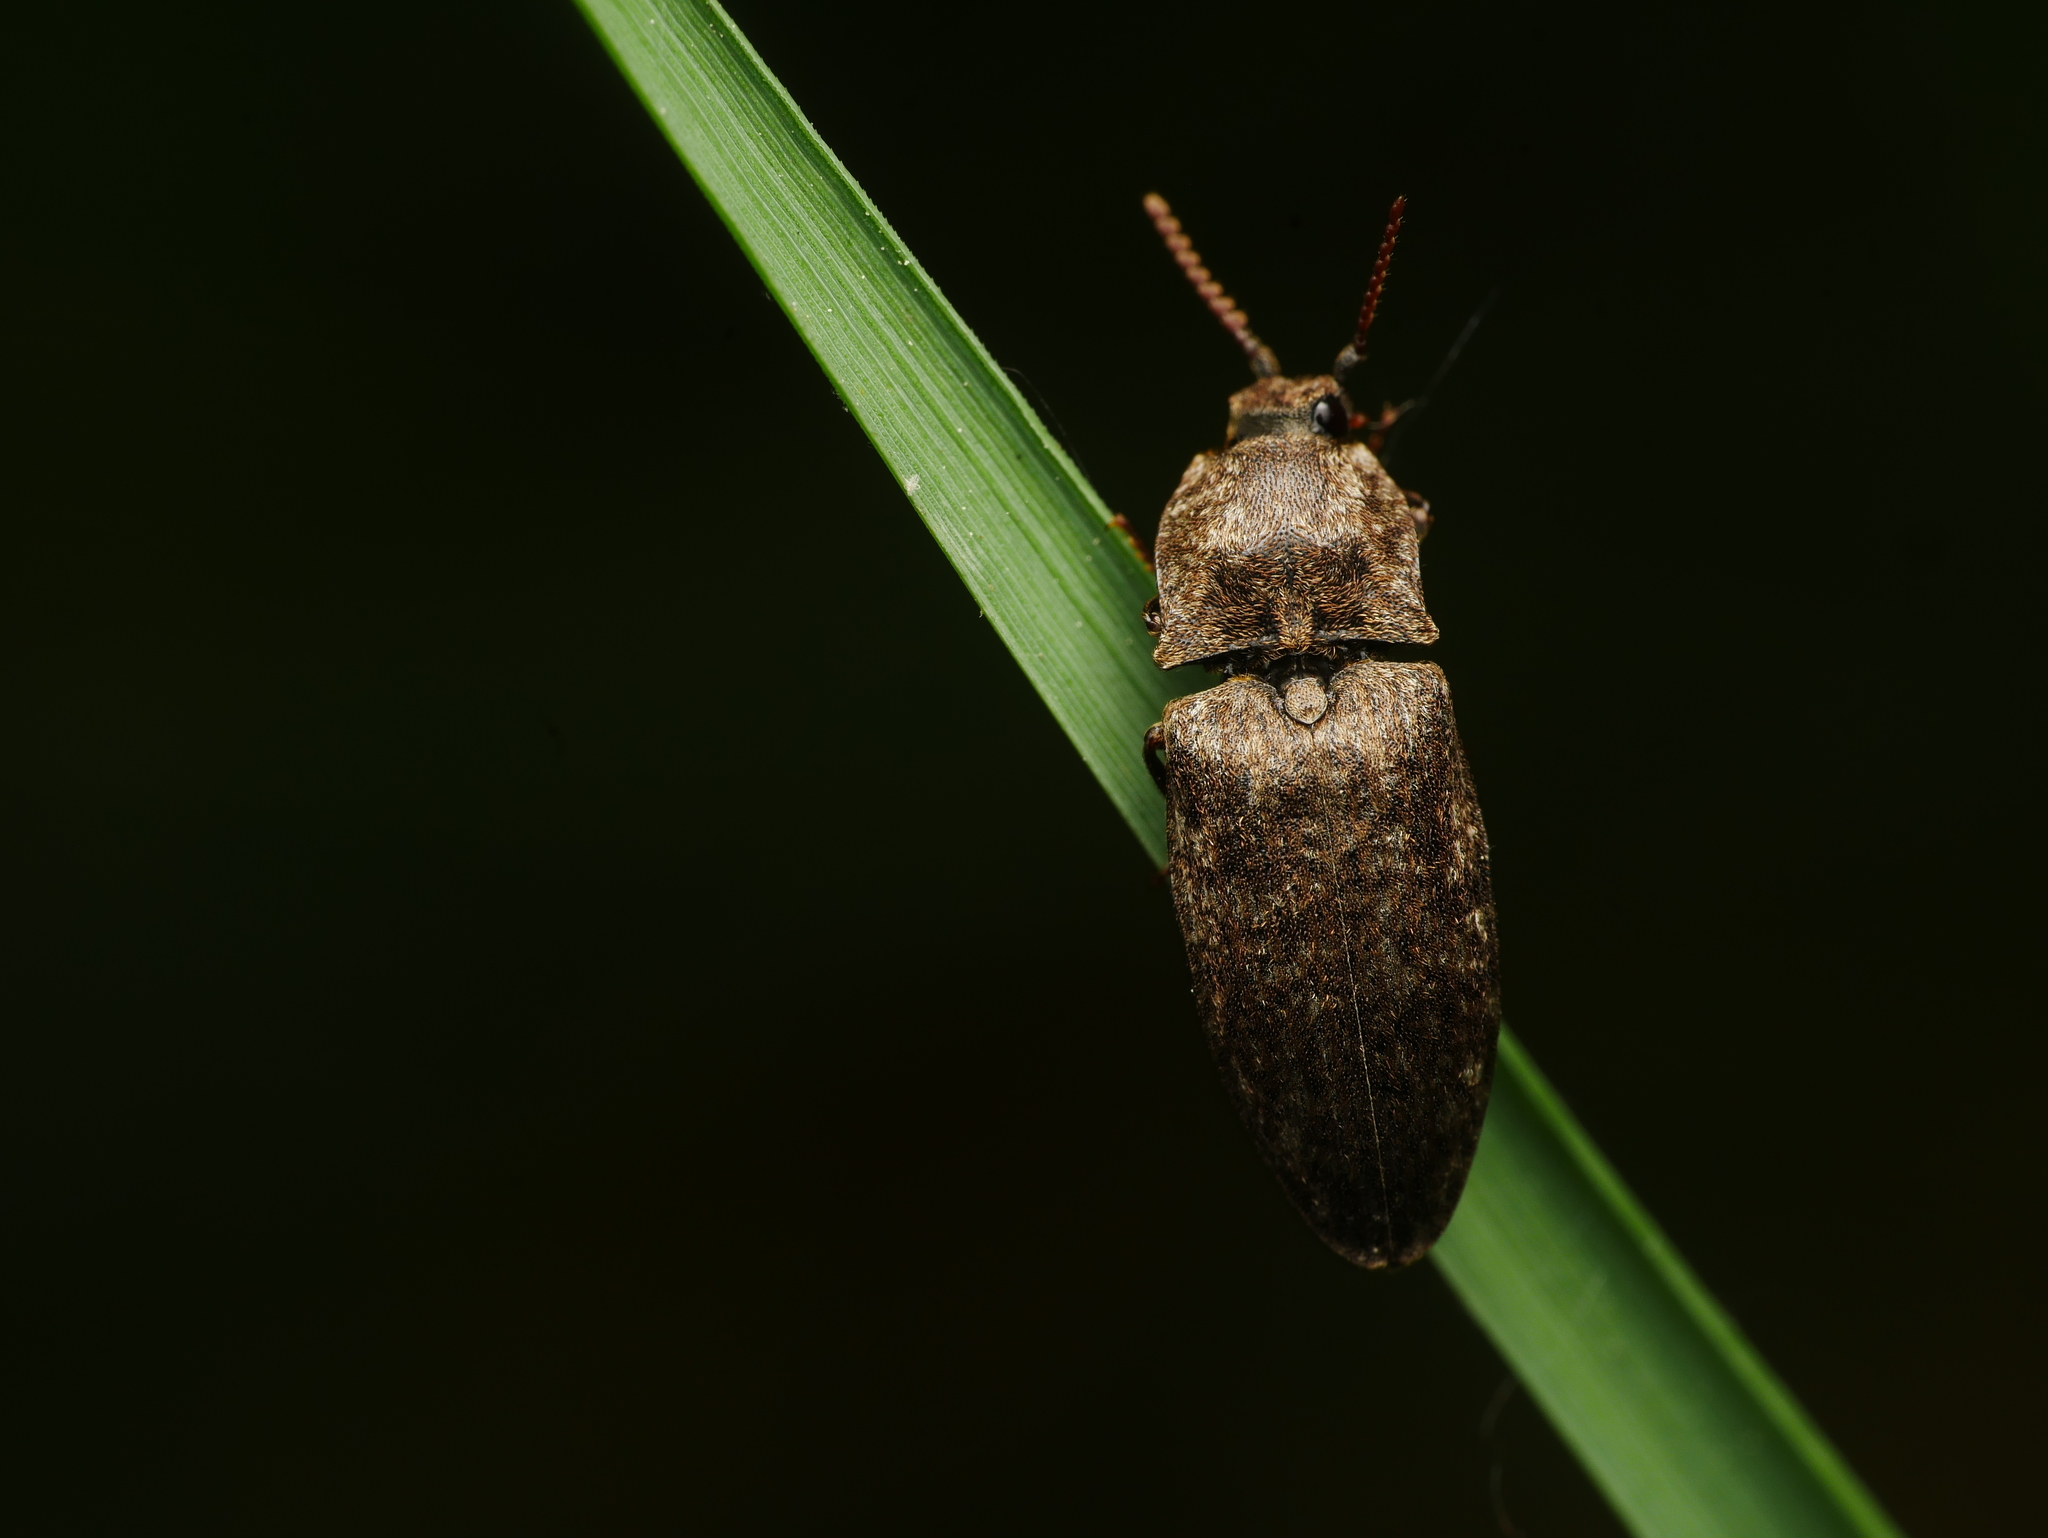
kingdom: Animalia
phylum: Arthropoda
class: Insecta
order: Coleoptera
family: Elateridae
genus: Agrypnus
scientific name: Agrypnus murinus
